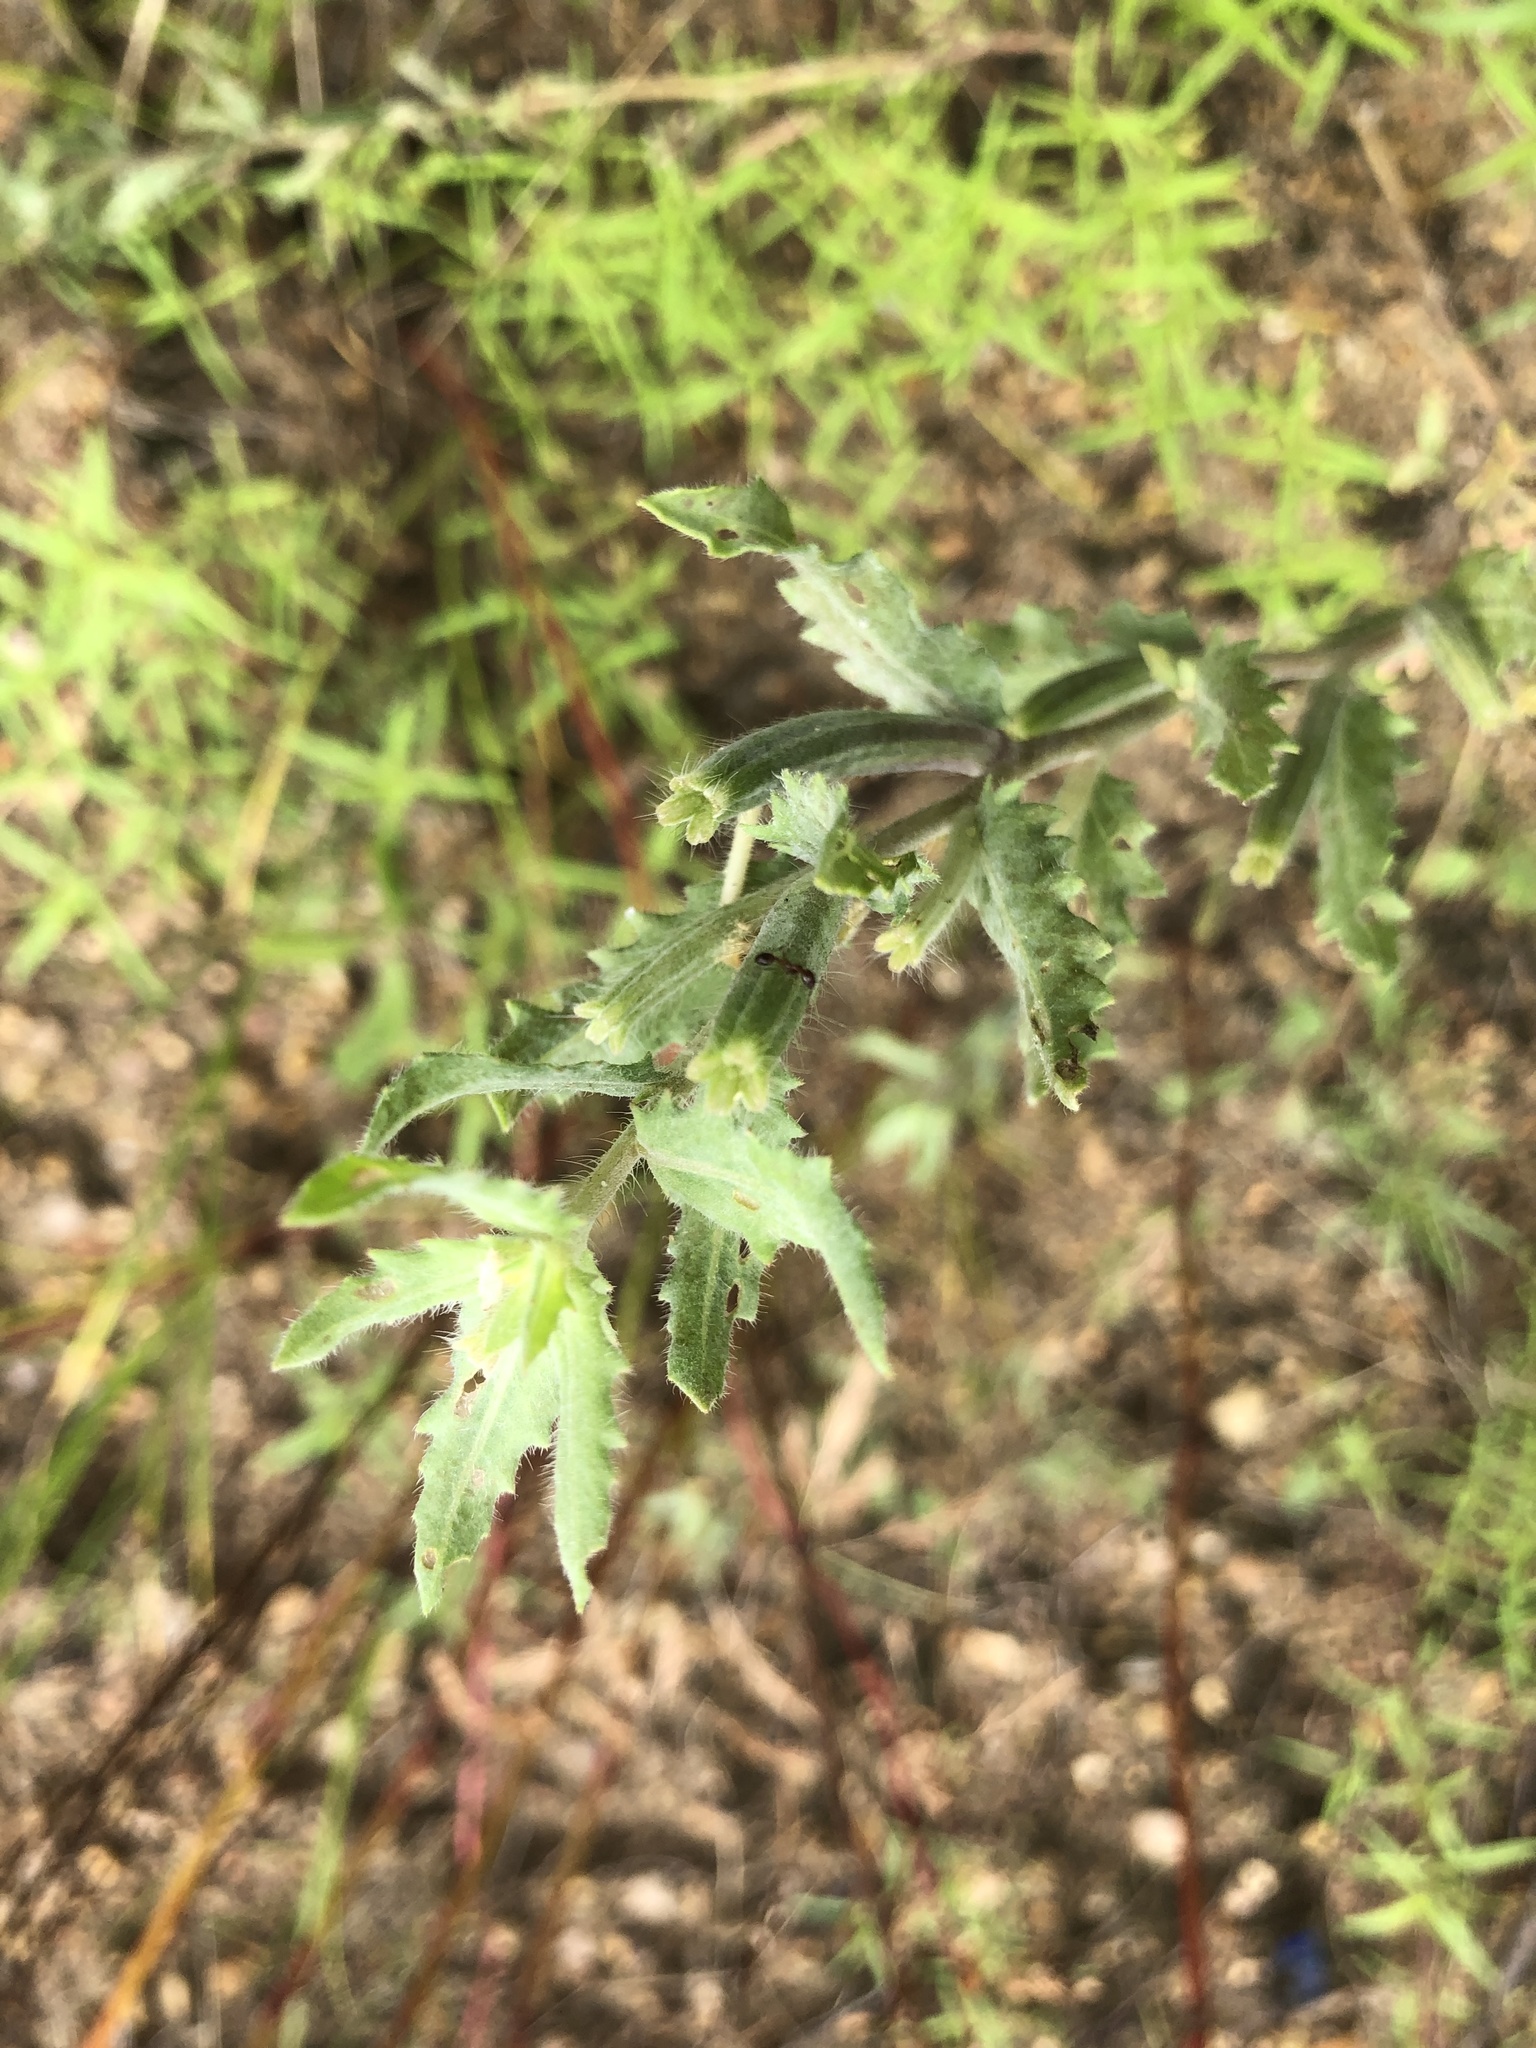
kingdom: Plantae
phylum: Tracheophyta
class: Magnoliopsida
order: Myrtales
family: Onagraceae
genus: Oenothera
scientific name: Oenothera laciniata
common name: Cut-leaved evening-primrose
